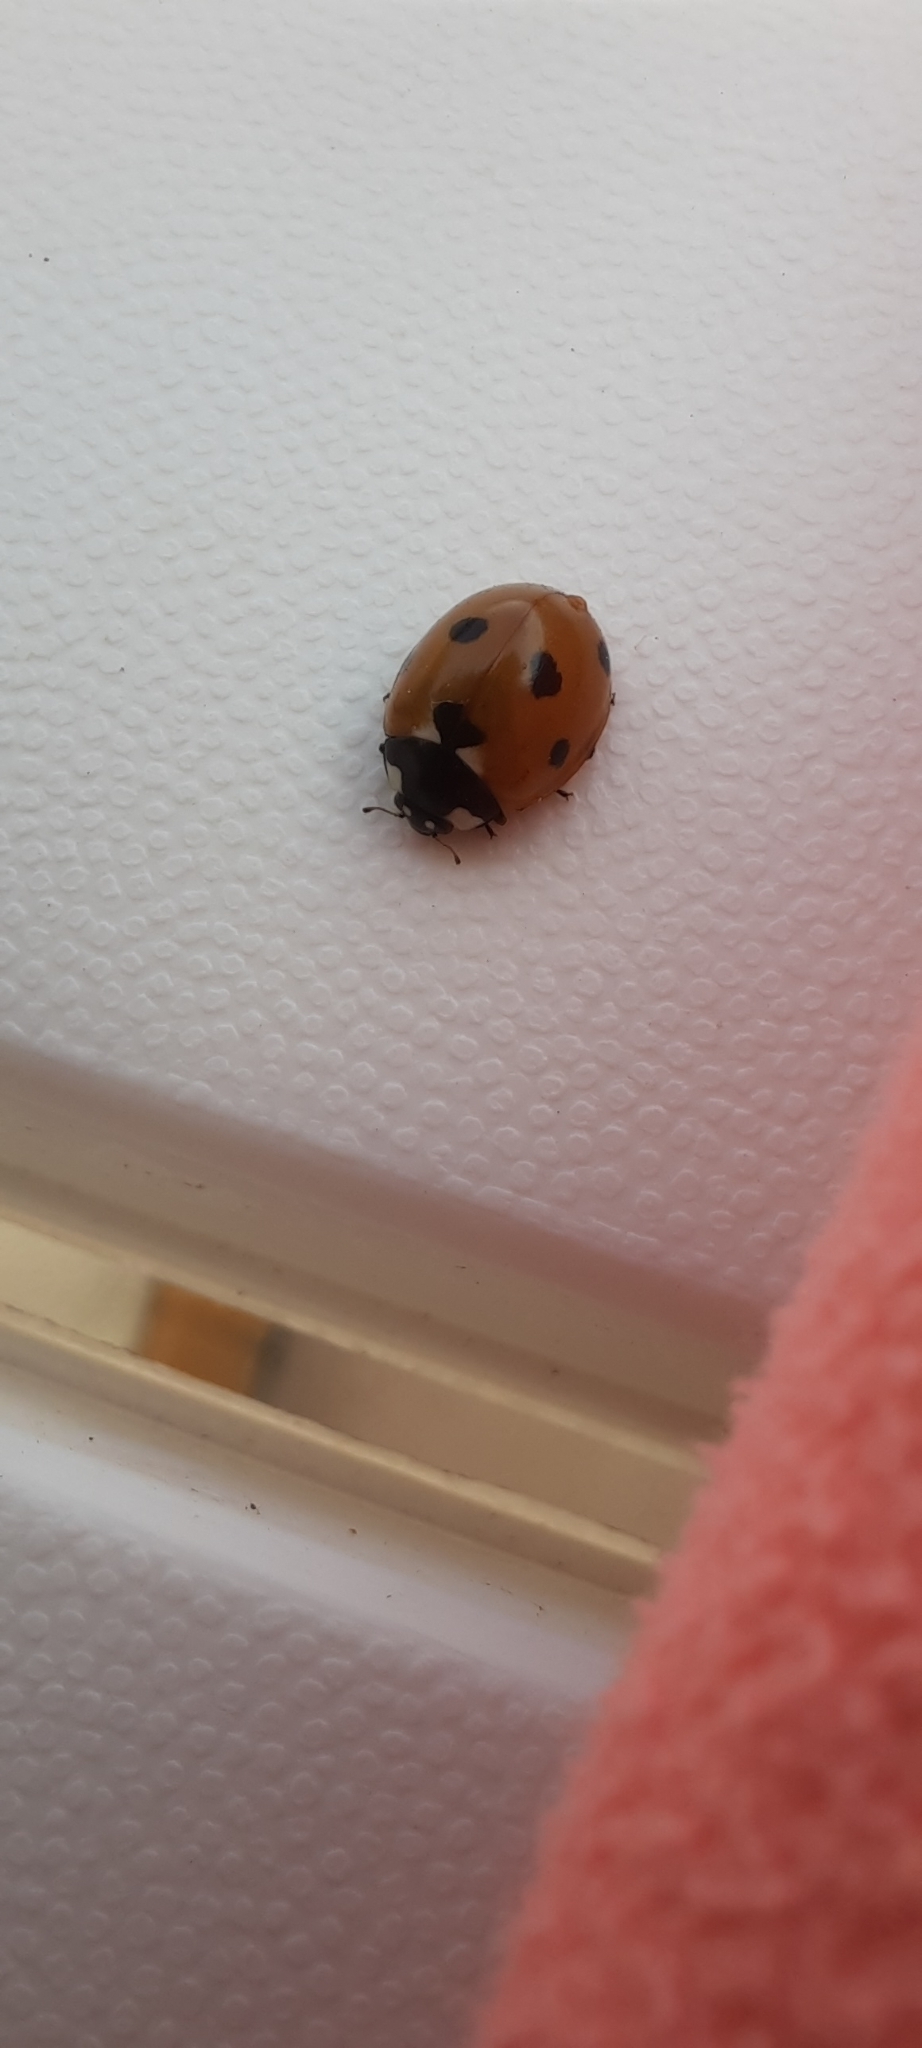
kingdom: Animalia
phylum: Arthropoda
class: Insecta
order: Coleoptera
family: Coccinellidae
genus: Coccinella
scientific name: Coccinella septempunctata
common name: Sevenspotted lady beetle
